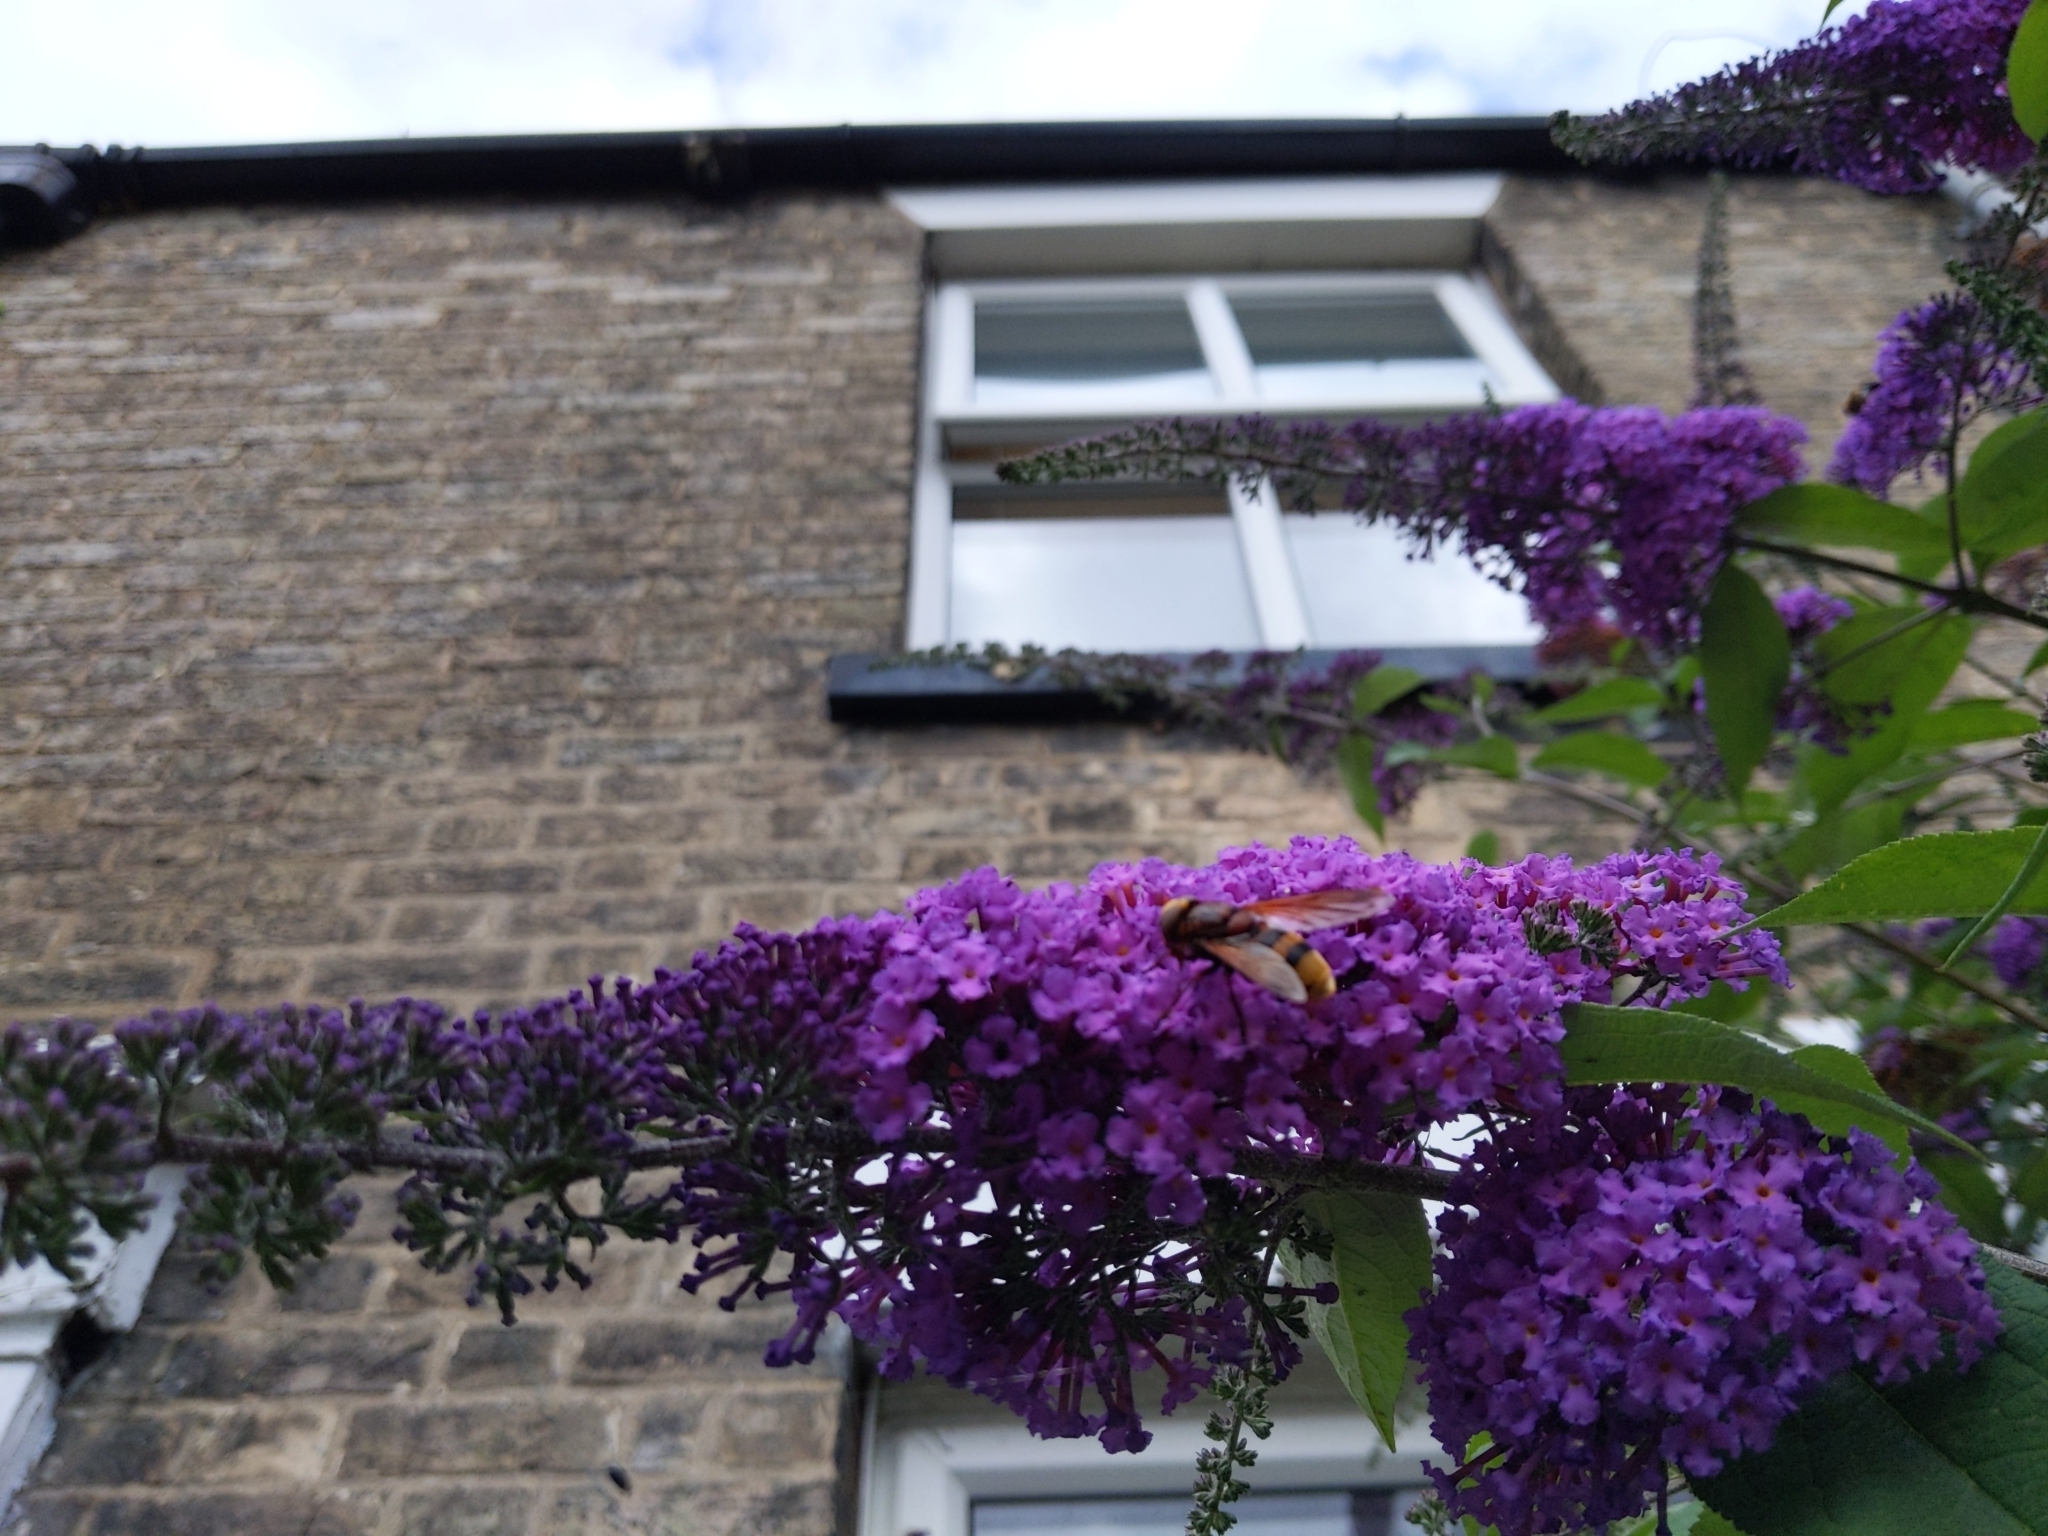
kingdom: Animalia
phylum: Arthropoda
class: Insecta
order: Diptera
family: Syrphidae
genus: Volucella
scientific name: Volucella zonaria
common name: Hornet hoverfly
